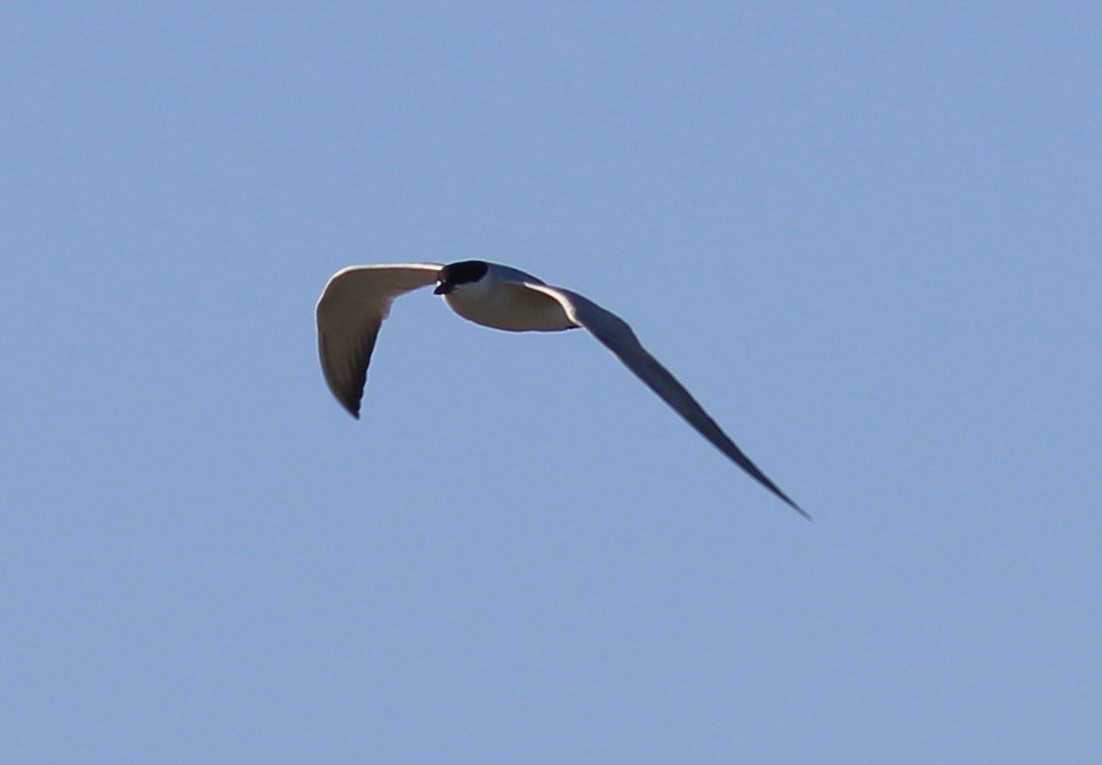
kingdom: Animalia
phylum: Chordata
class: Aves
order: Charadriiformes
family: Laridae
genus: Gelochelidon
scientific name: Gelochelidon nilotica
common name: Gull-billed tern
